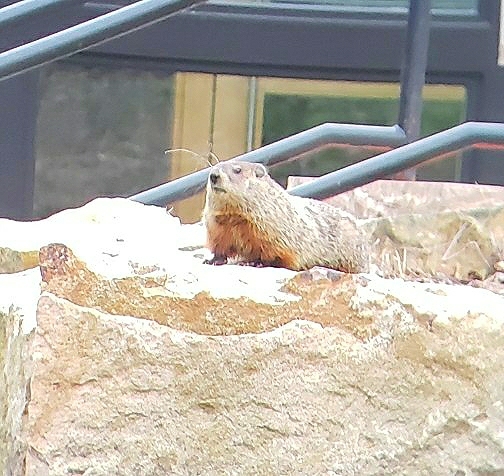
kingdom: Animalia
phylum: Chordata
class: Mammalia
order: Rodentia
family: Sciuridae
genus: Marmota
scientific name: Marmota monax
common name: Groundhog
